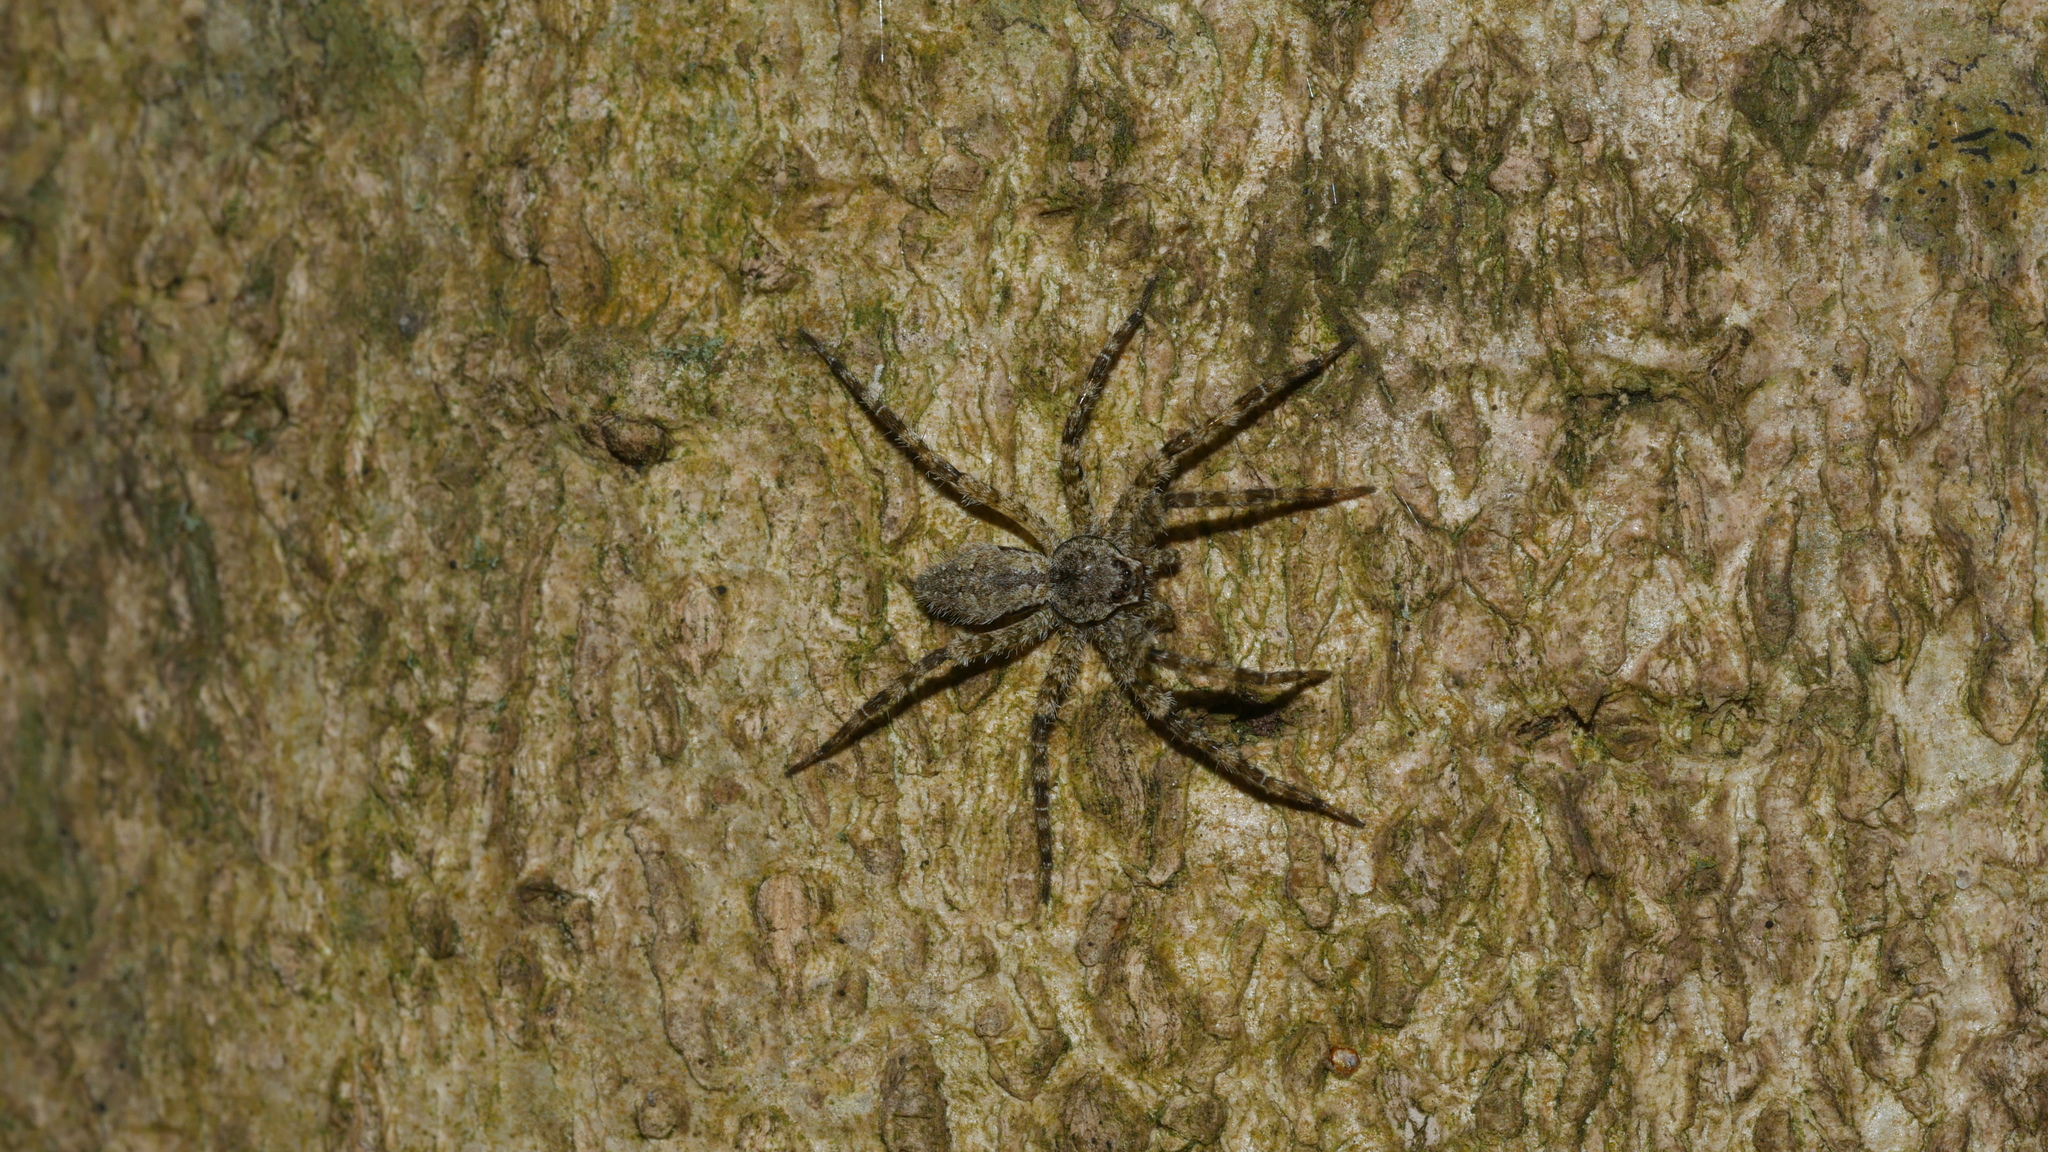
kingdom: Animalia
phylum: Arthropoda
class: Arachnida
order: Araneae
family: Pisauridae
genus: Dolomedes
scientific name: Dolomedes albineus
